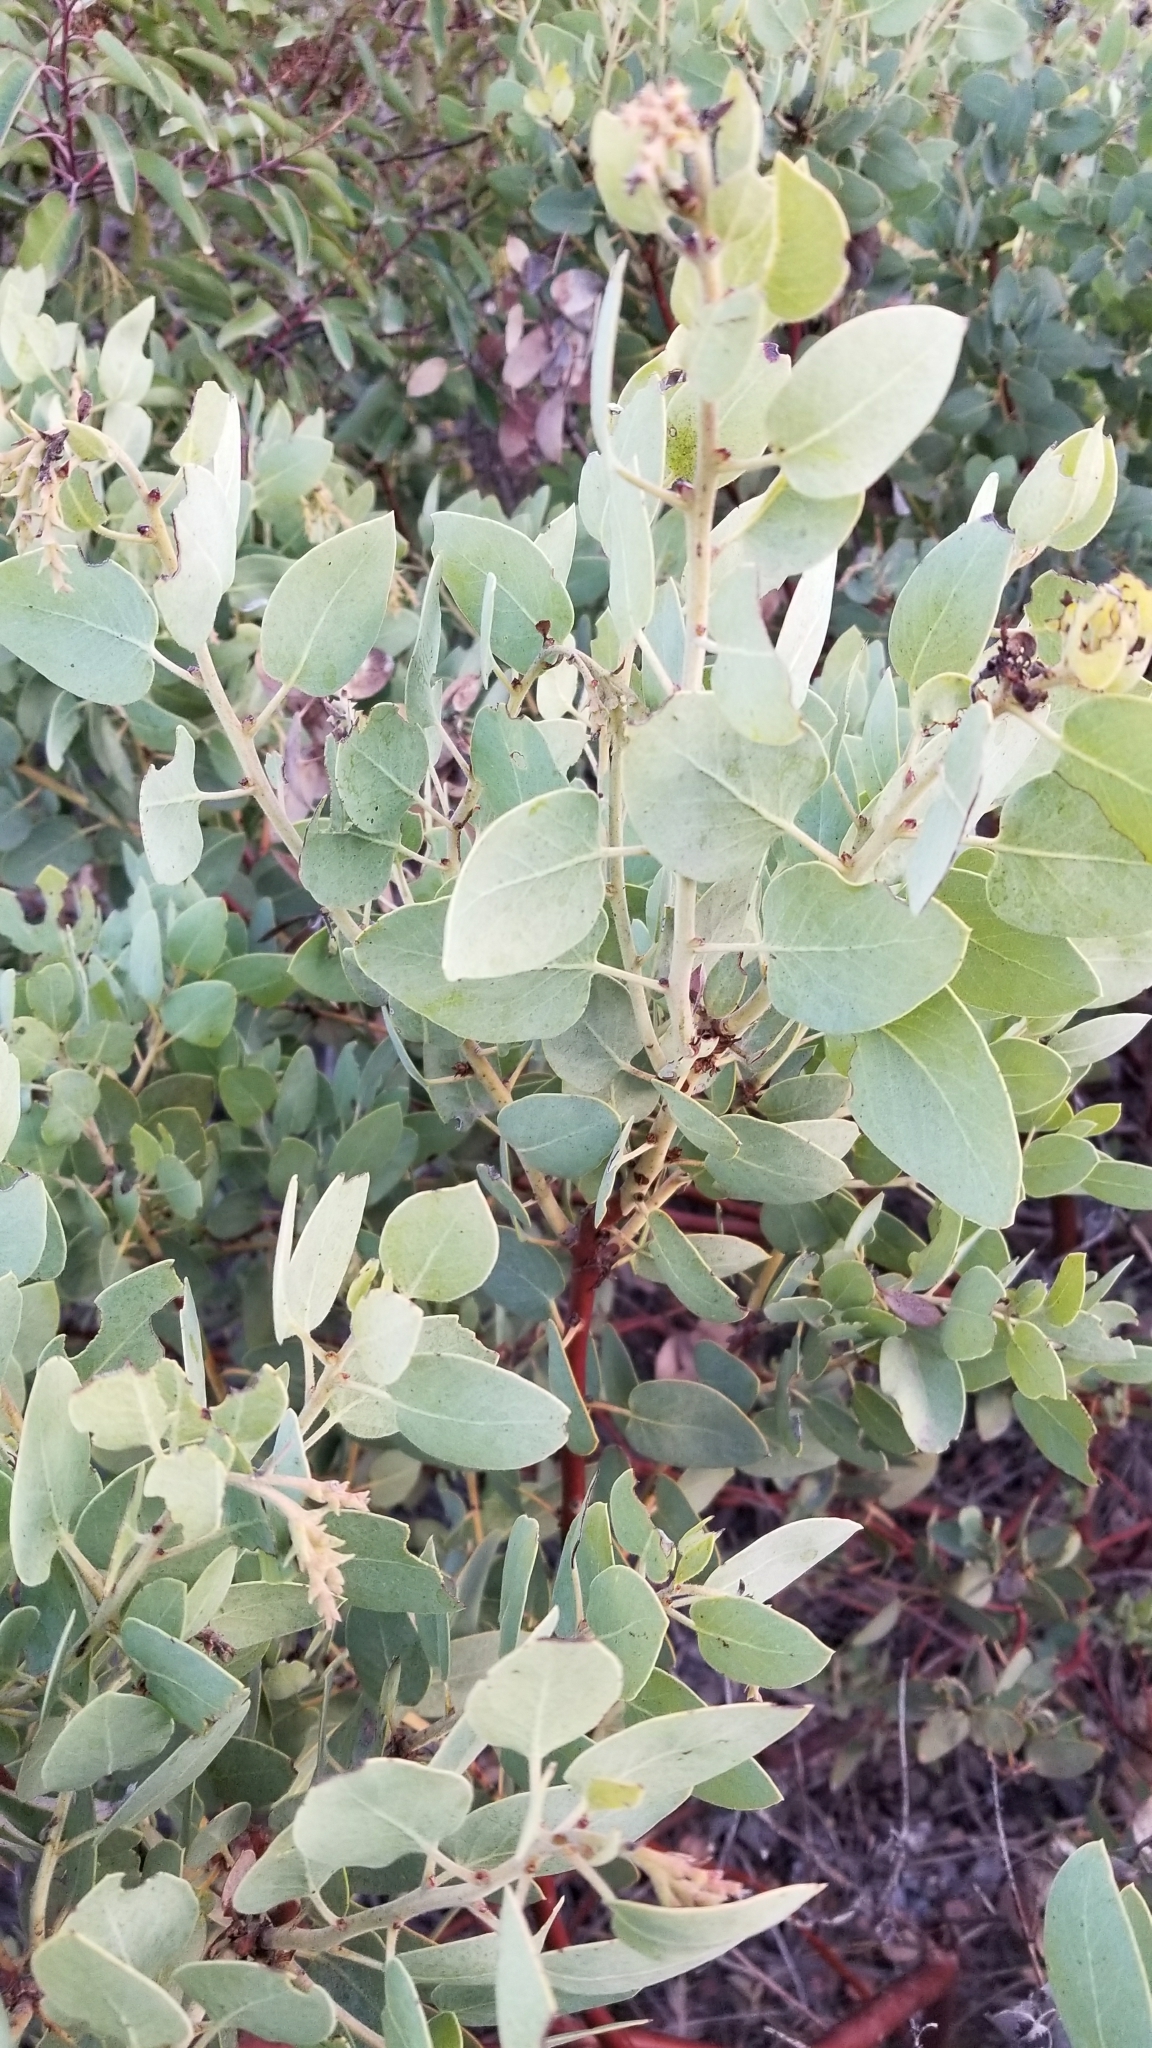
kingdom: Plantae
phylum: Tracheophyta
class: Magnoliopsida
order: Ericales
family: Ericaceae
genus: Arctostaphylos
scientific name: Arctostaphylos glauca
